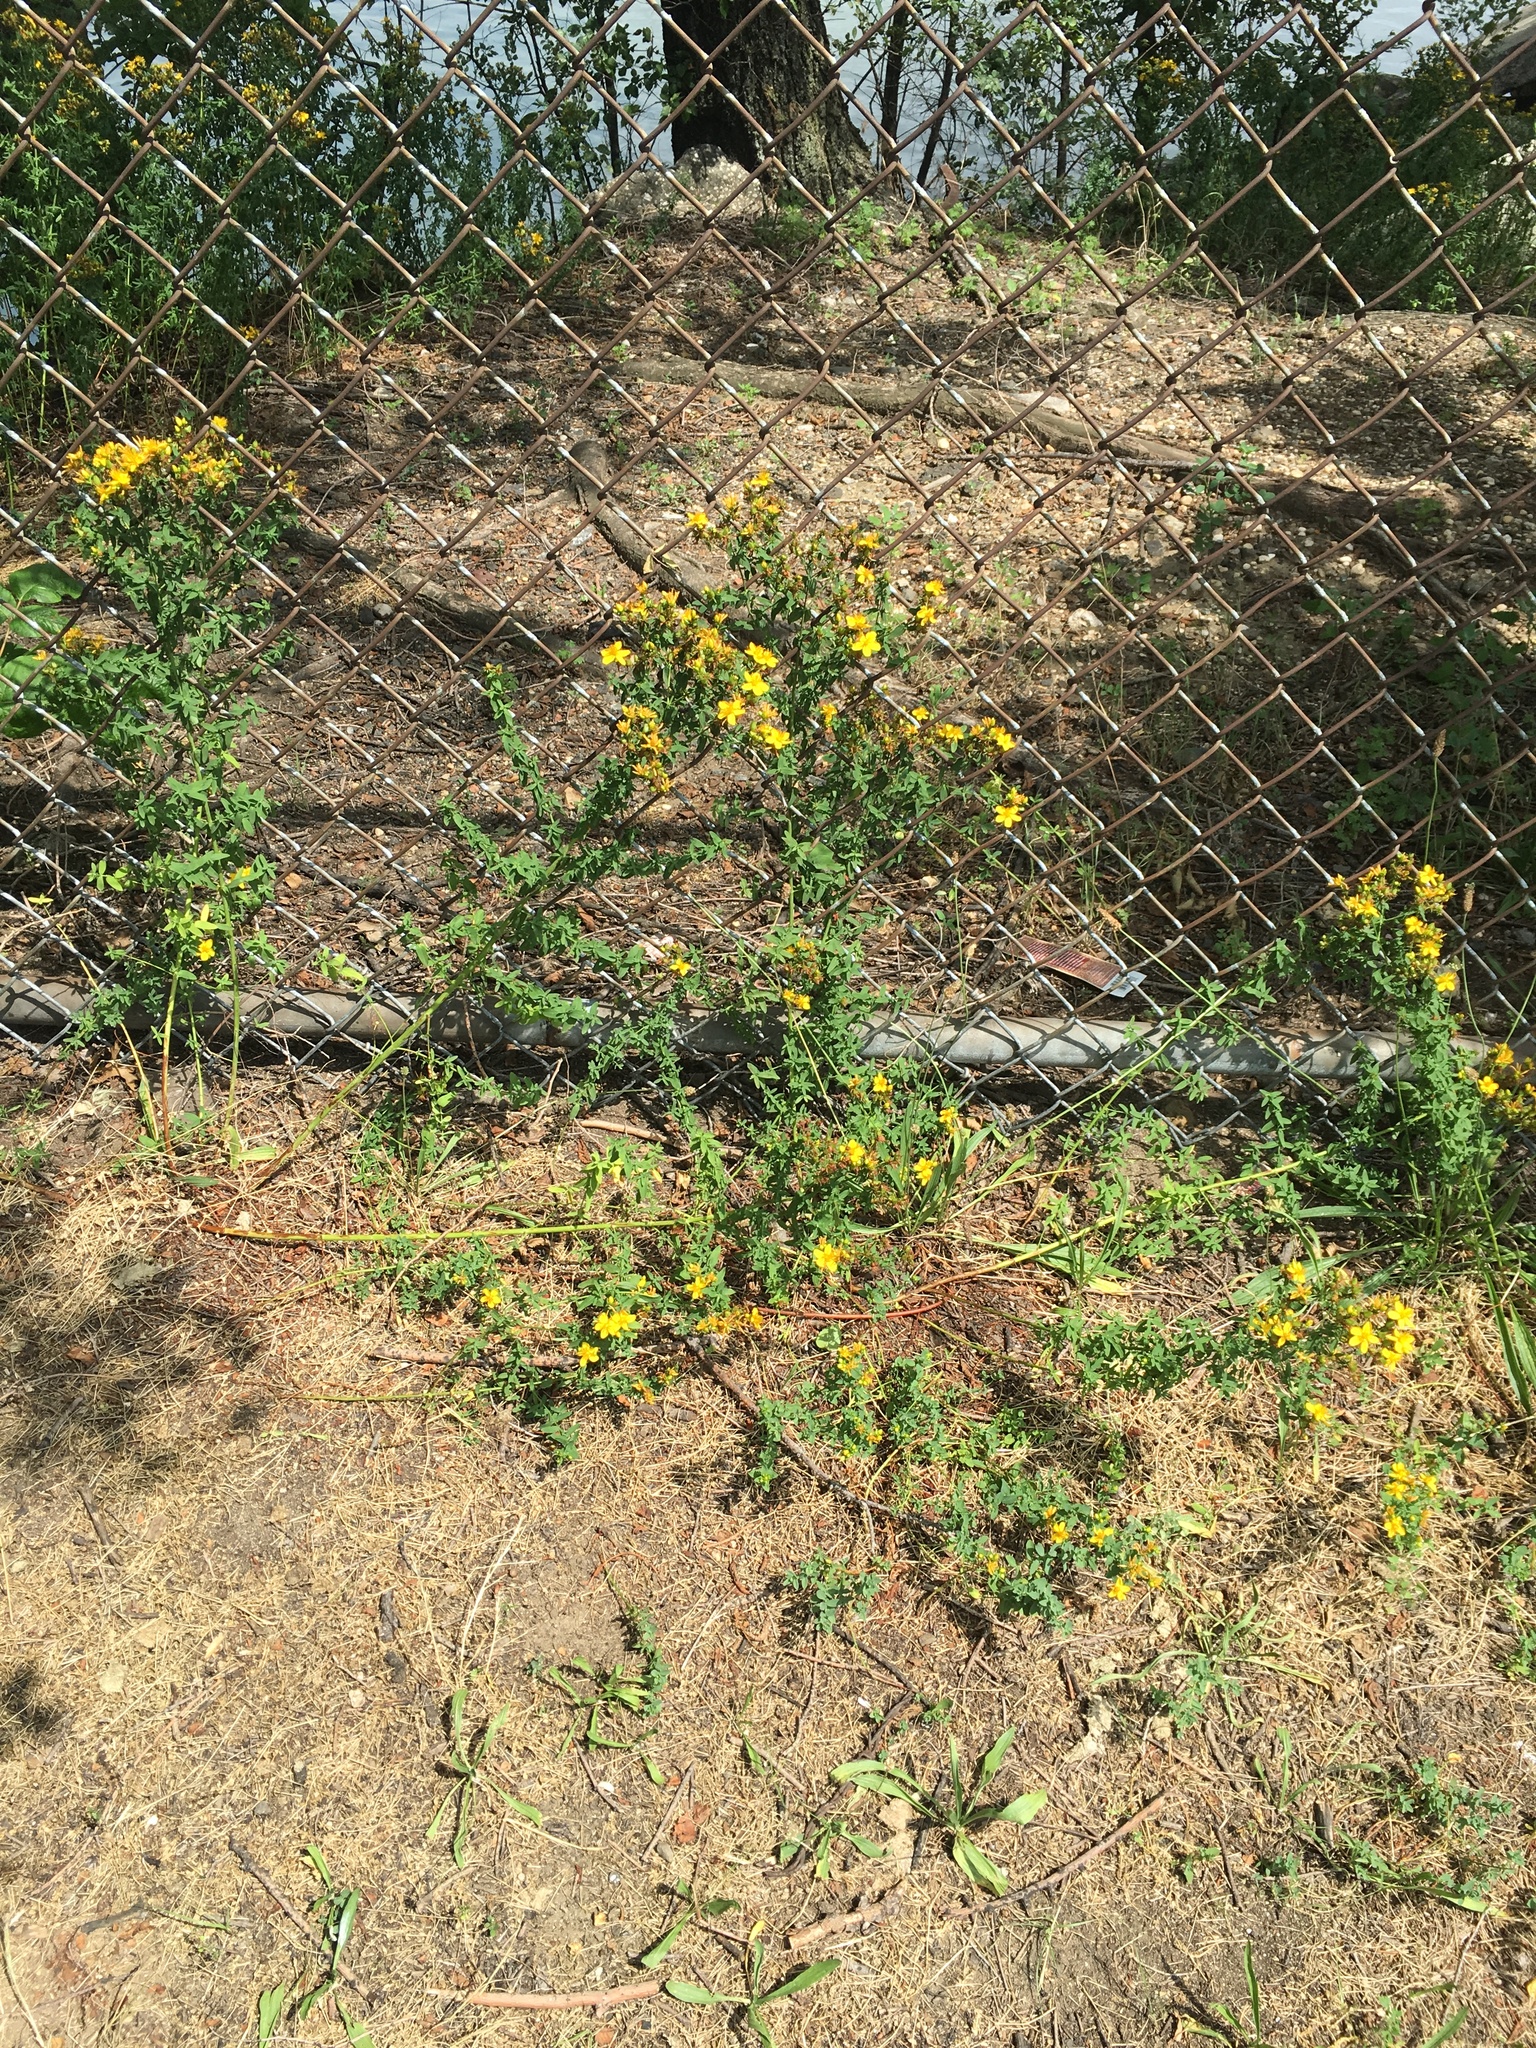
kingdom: Plantae
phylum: Tracheophyta
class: Magnoliopsida
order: Malpighiales
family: Hypericaceae
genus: Hypericum
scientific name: Hypericum perforatum
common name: Common st. johnswort
